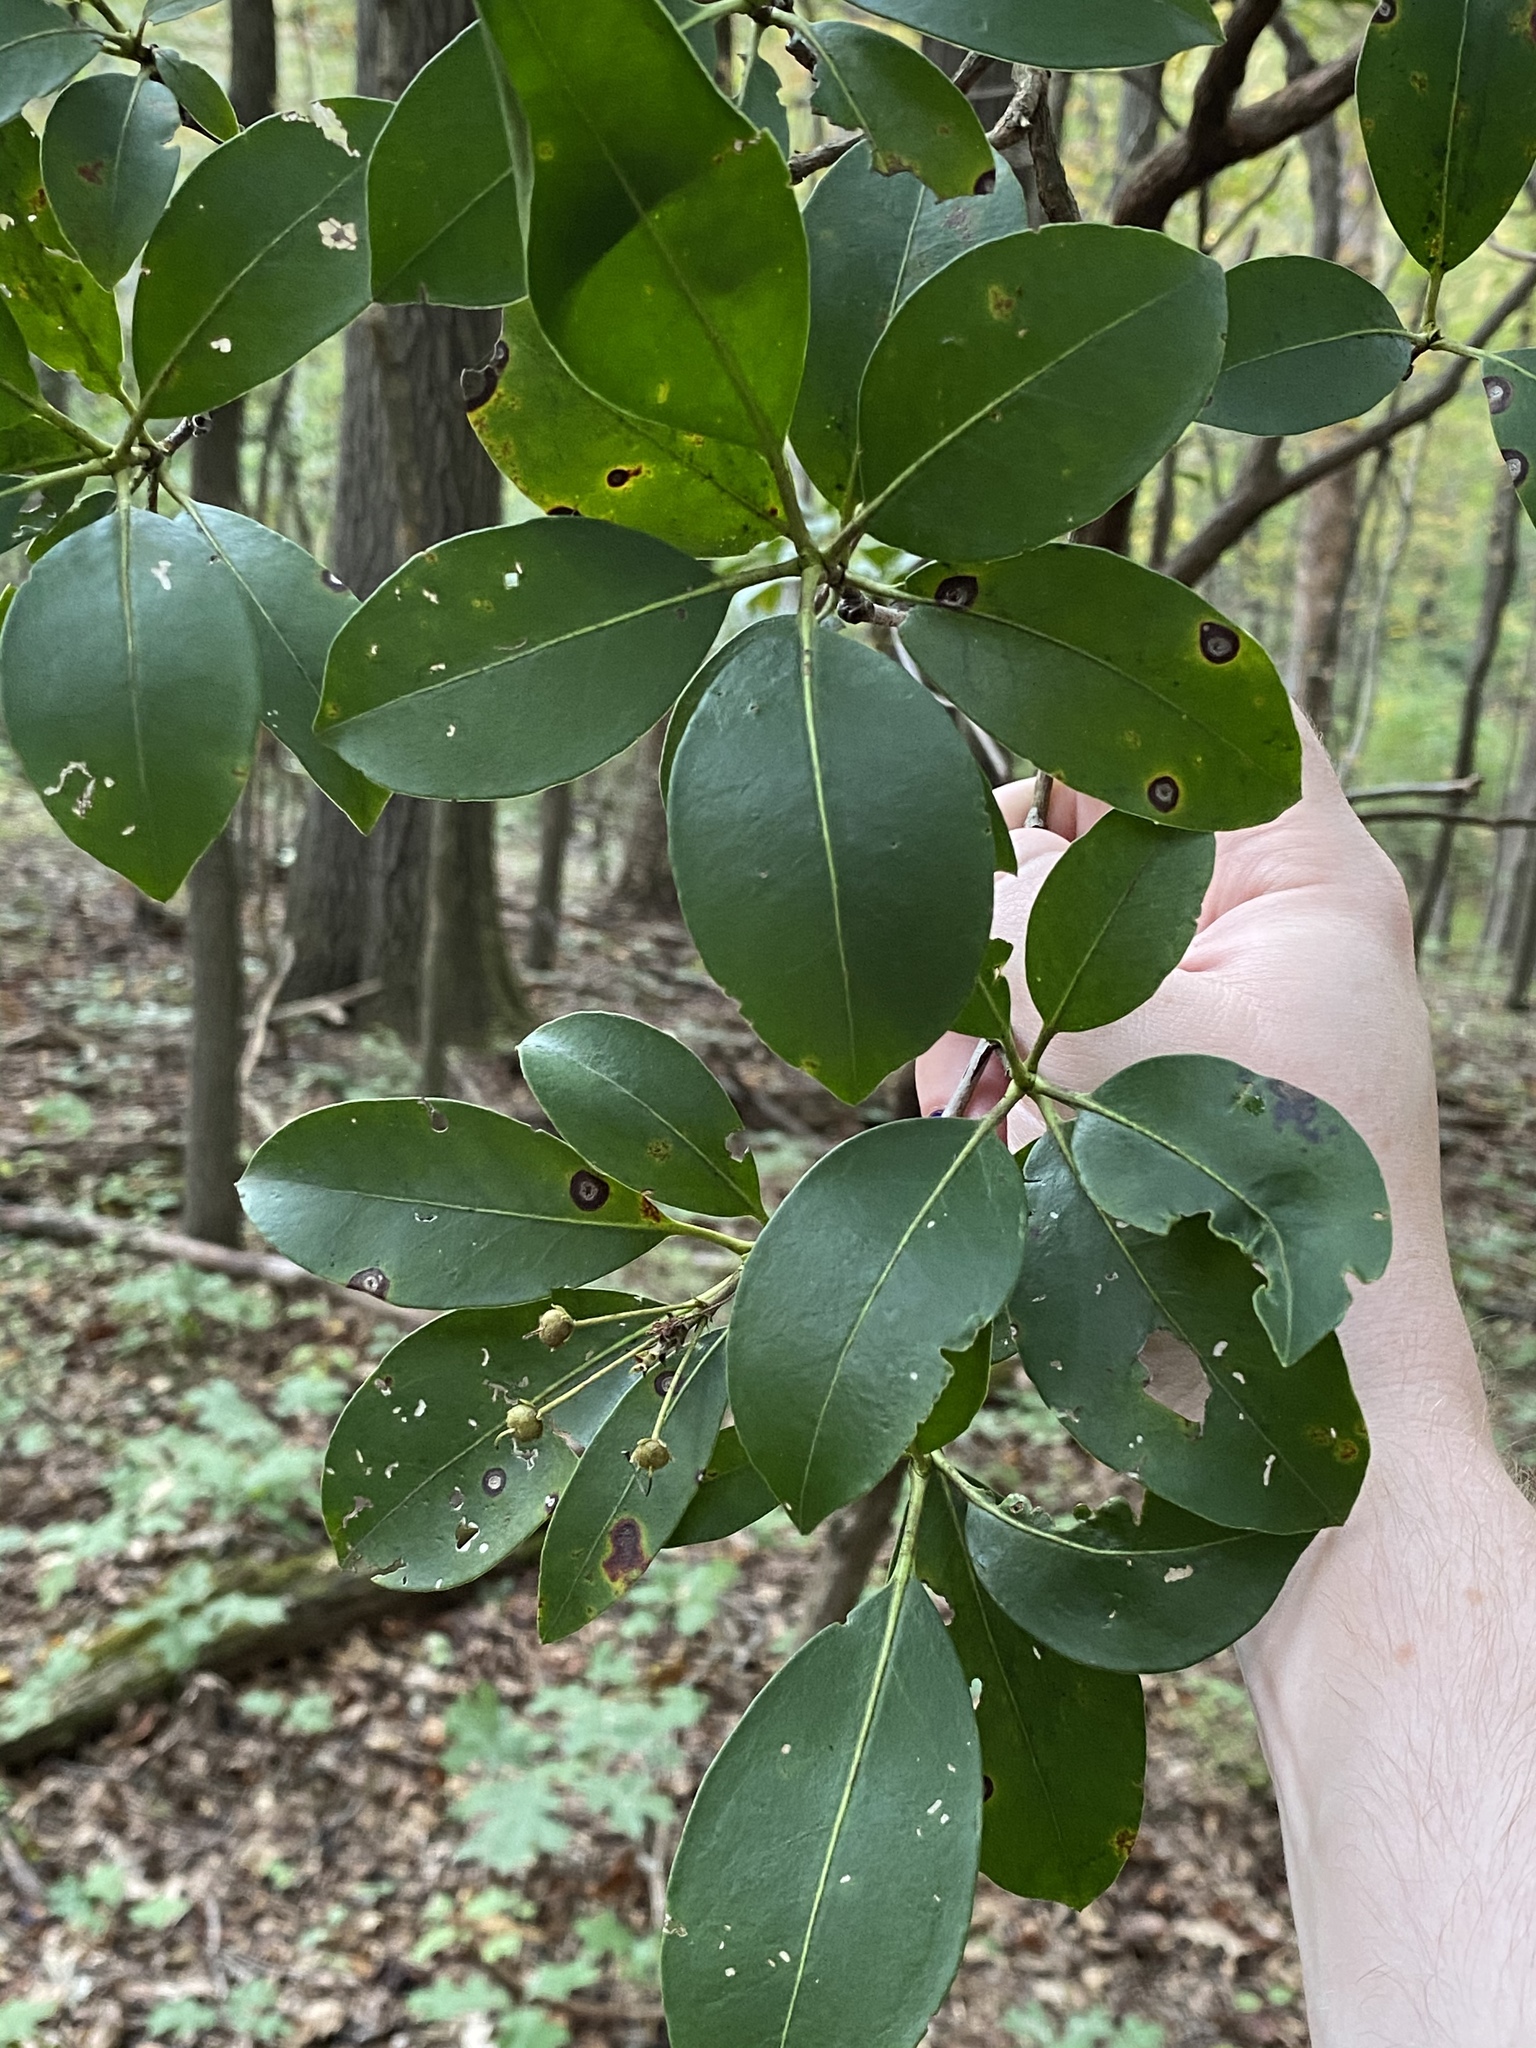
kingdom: Fungi
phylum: Ascomycota
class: Dothideomycetes
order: Mycosphaerellales
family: Mycosphaerellaceae
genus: Mycosphaerella
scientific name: Mycosphaerella colorata
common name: Mountain laurel leaf spot
